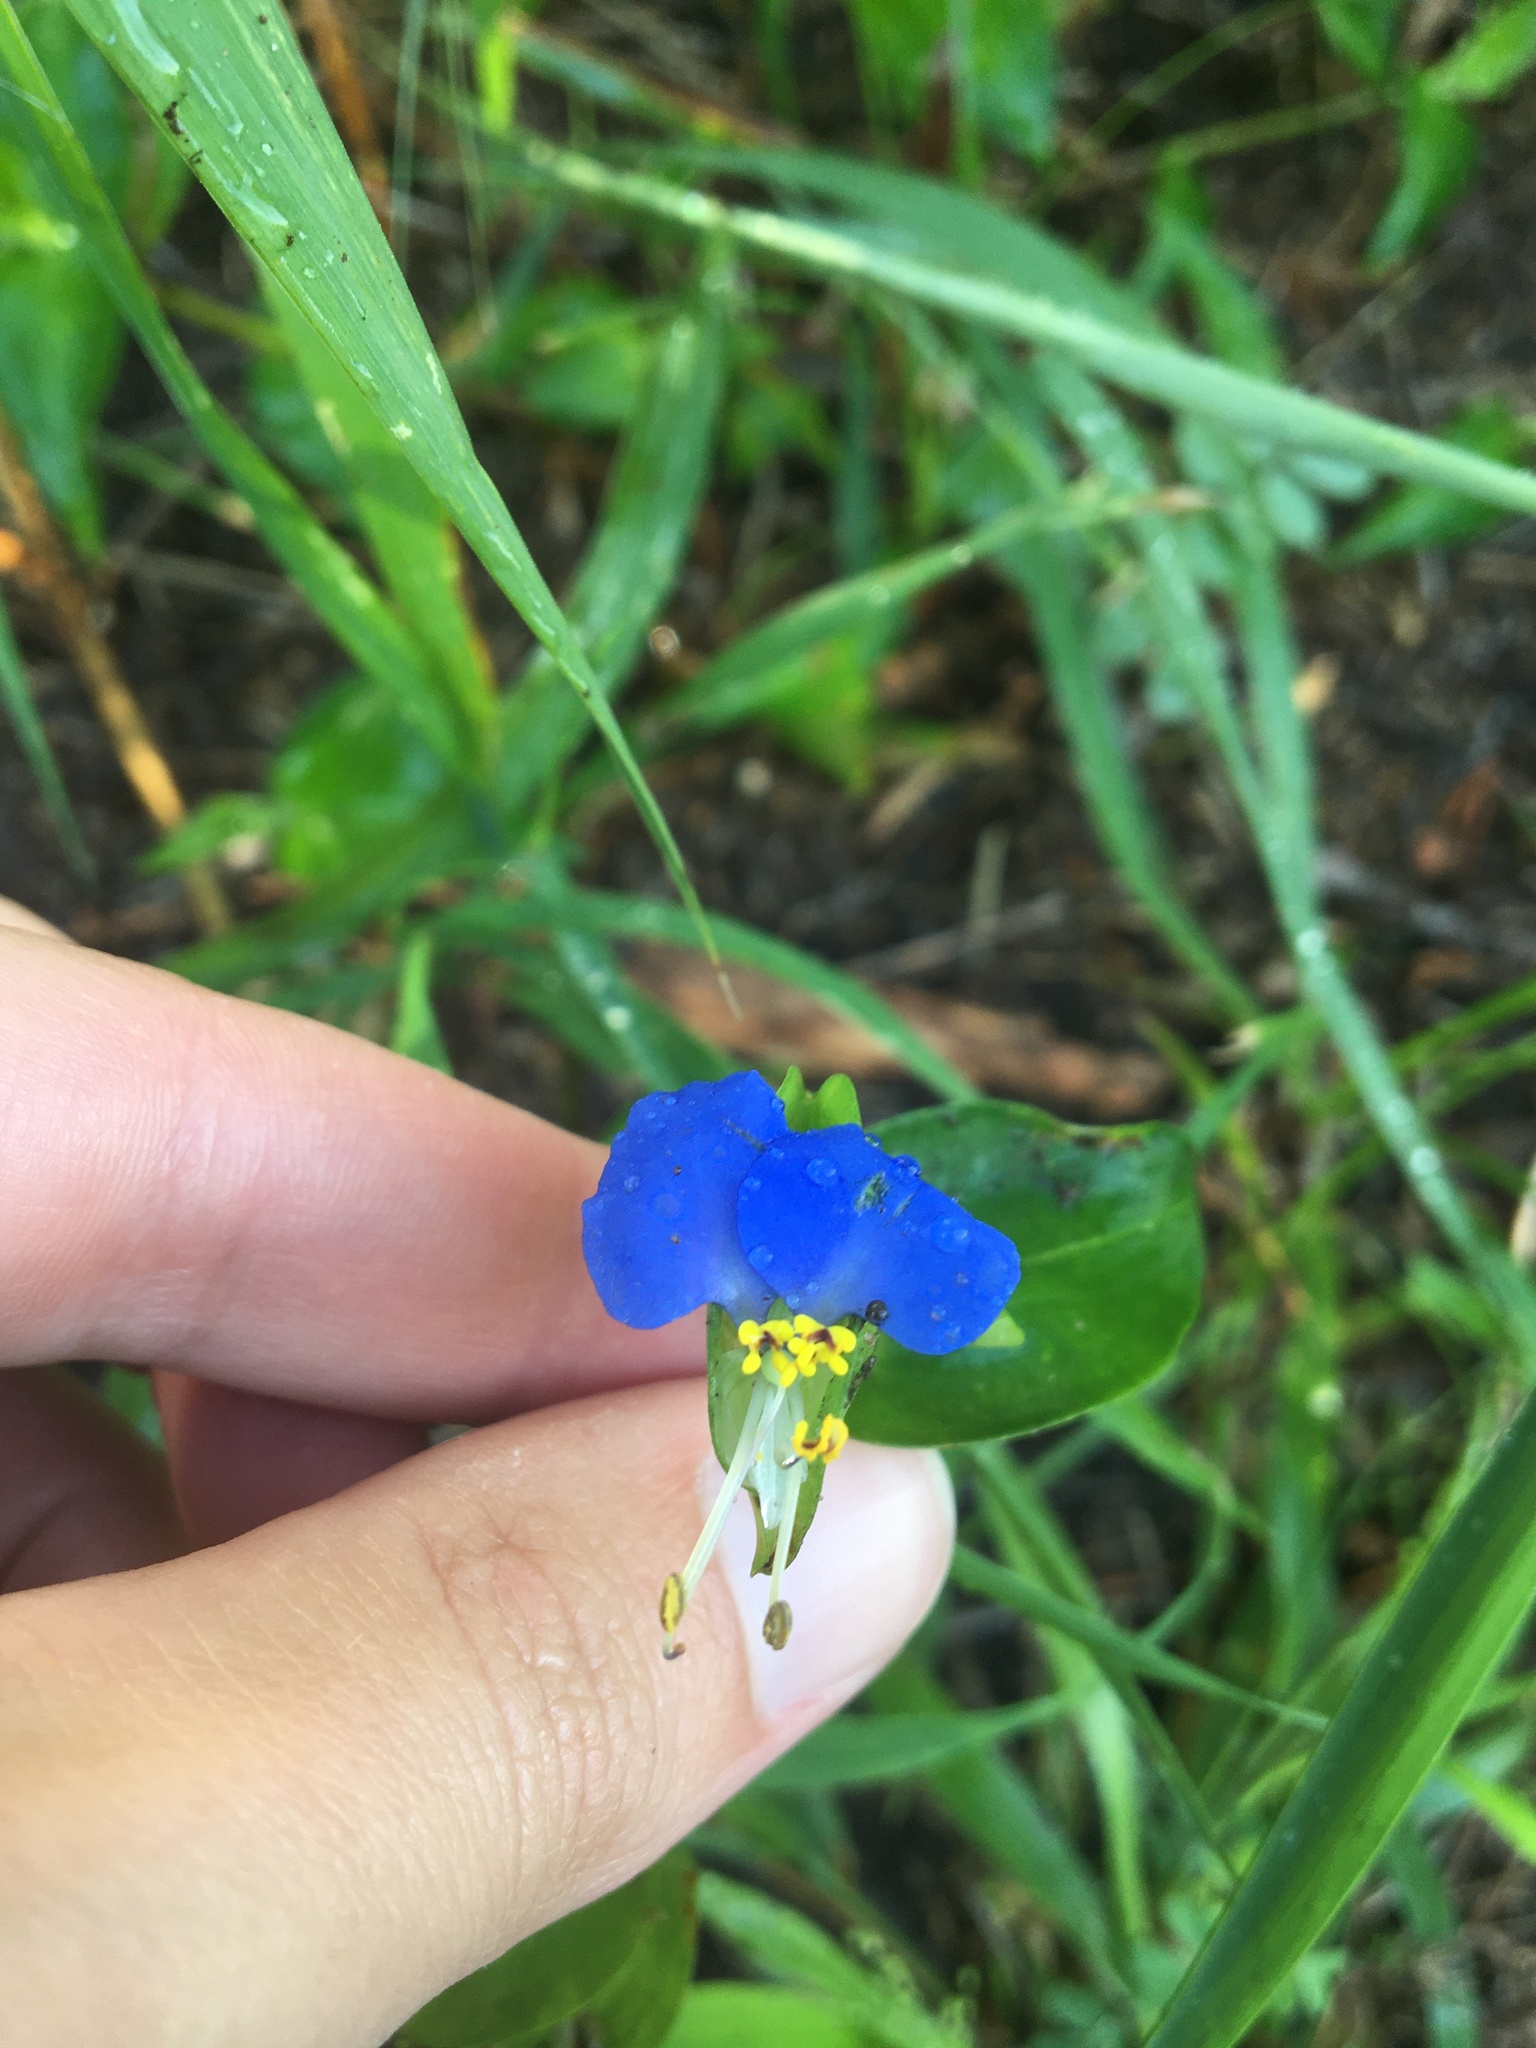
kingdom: Plantae
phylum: Tracheophyta
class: Liliopsida
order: Commelinales
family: Commelinaceae
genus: Commelina
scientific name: Commelina communis
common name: Asiatic dayflower
